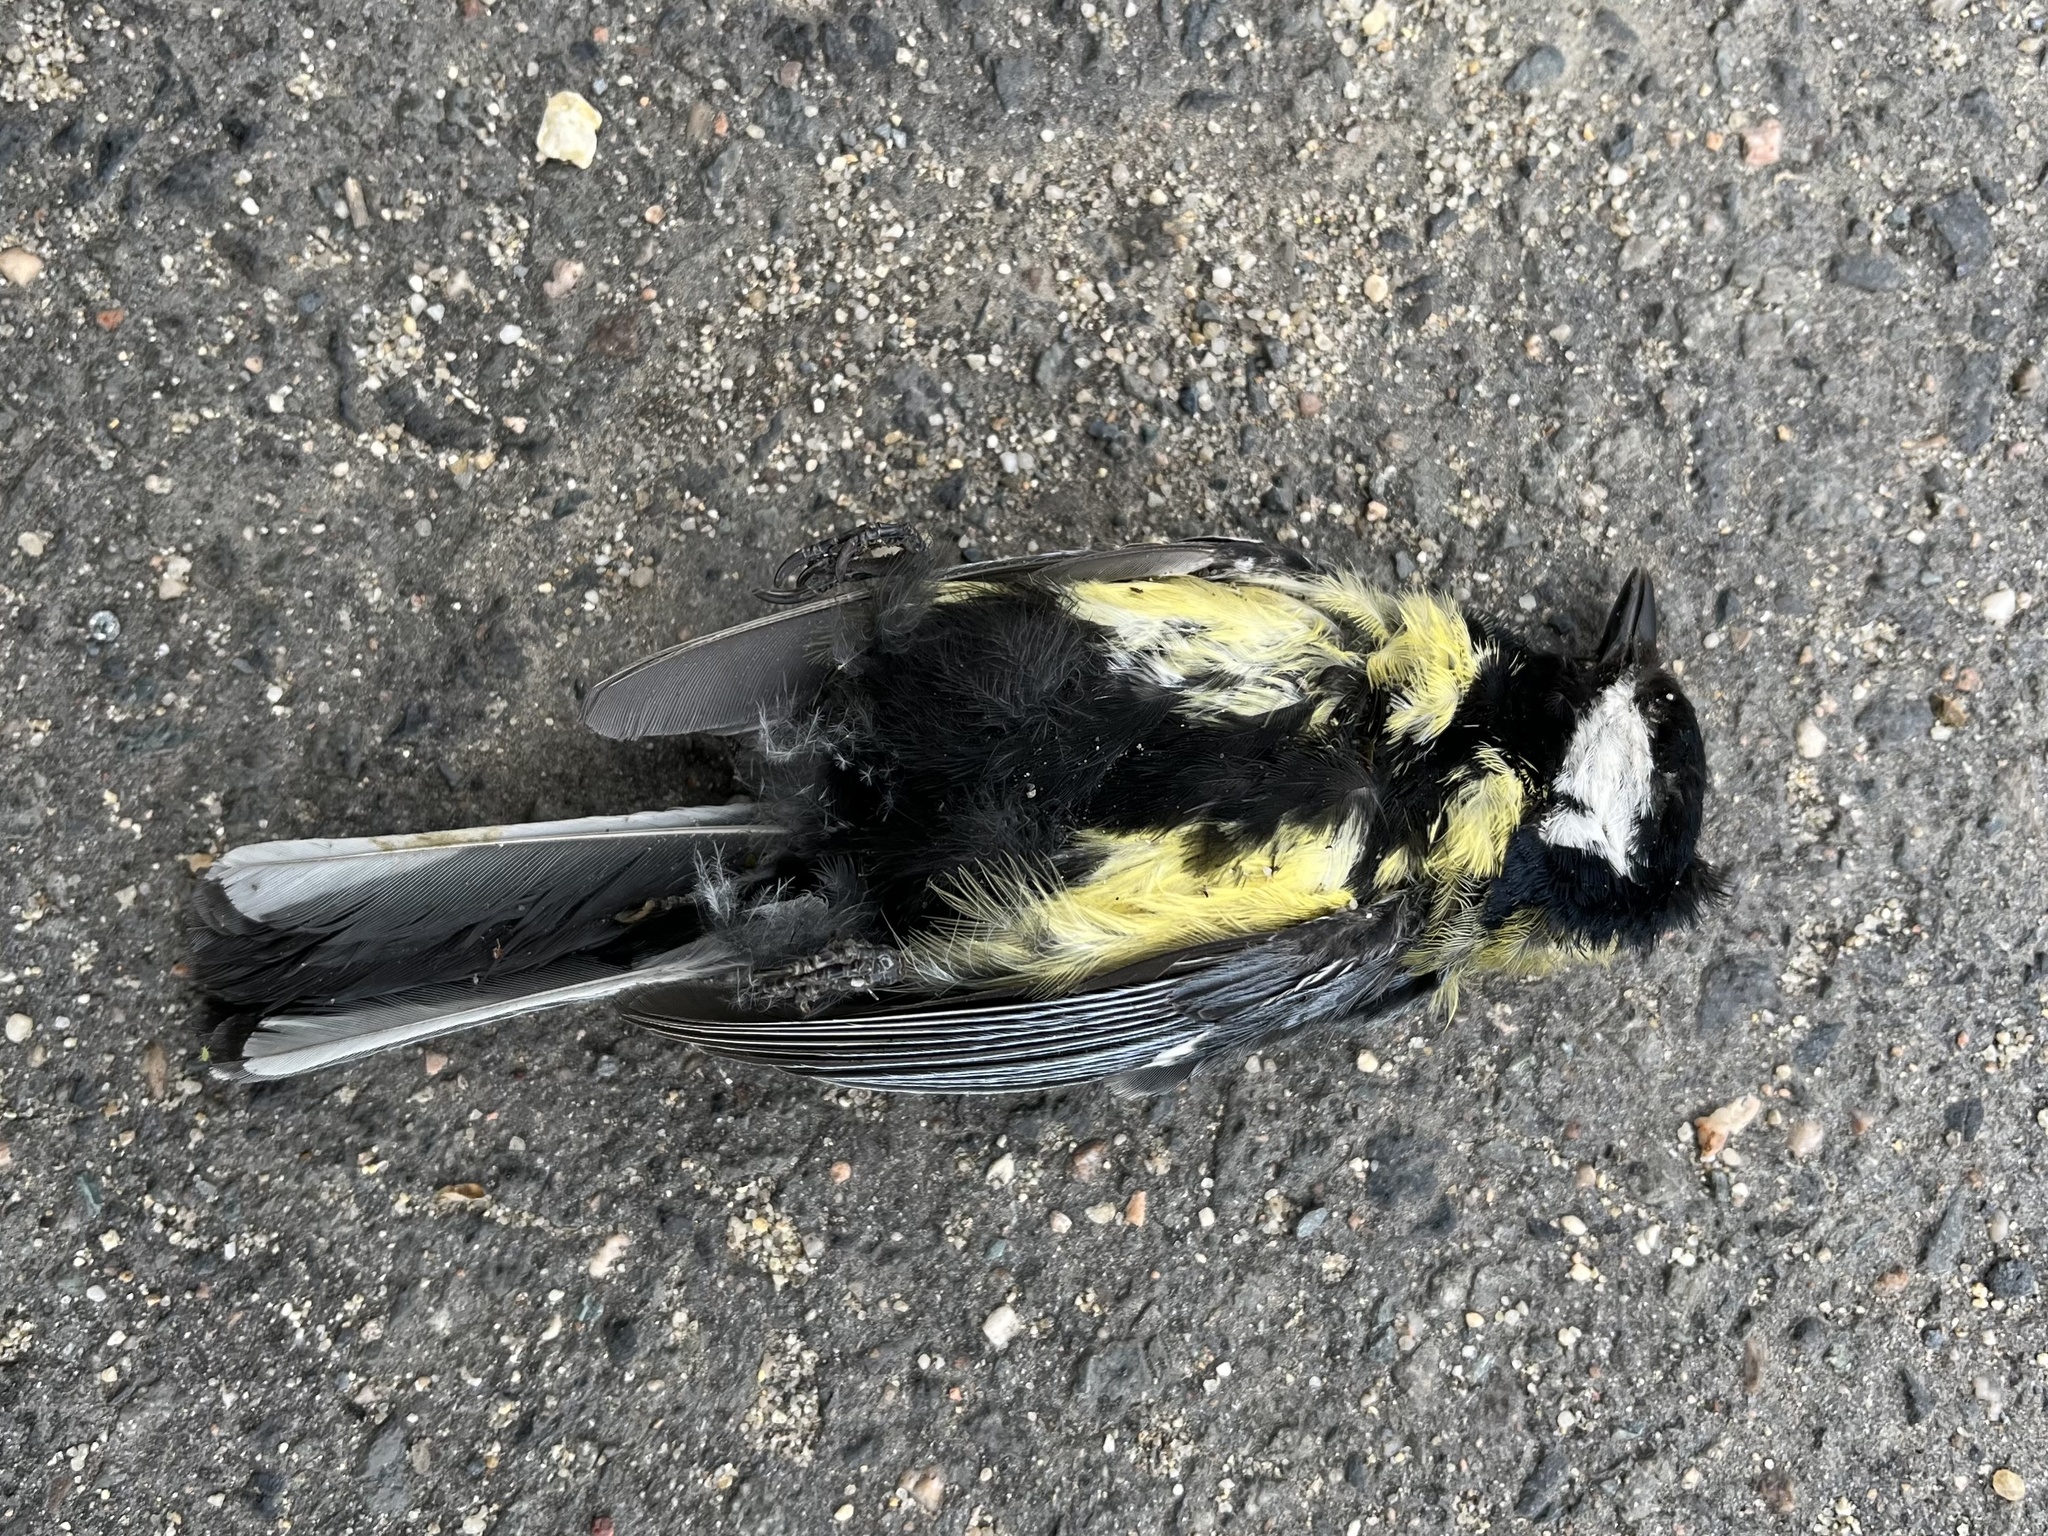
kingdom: Animalia
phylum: Chordata
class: Aves
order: Passeriformes
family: Paridae
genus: Parus
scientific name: Parus major
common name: Great tit
